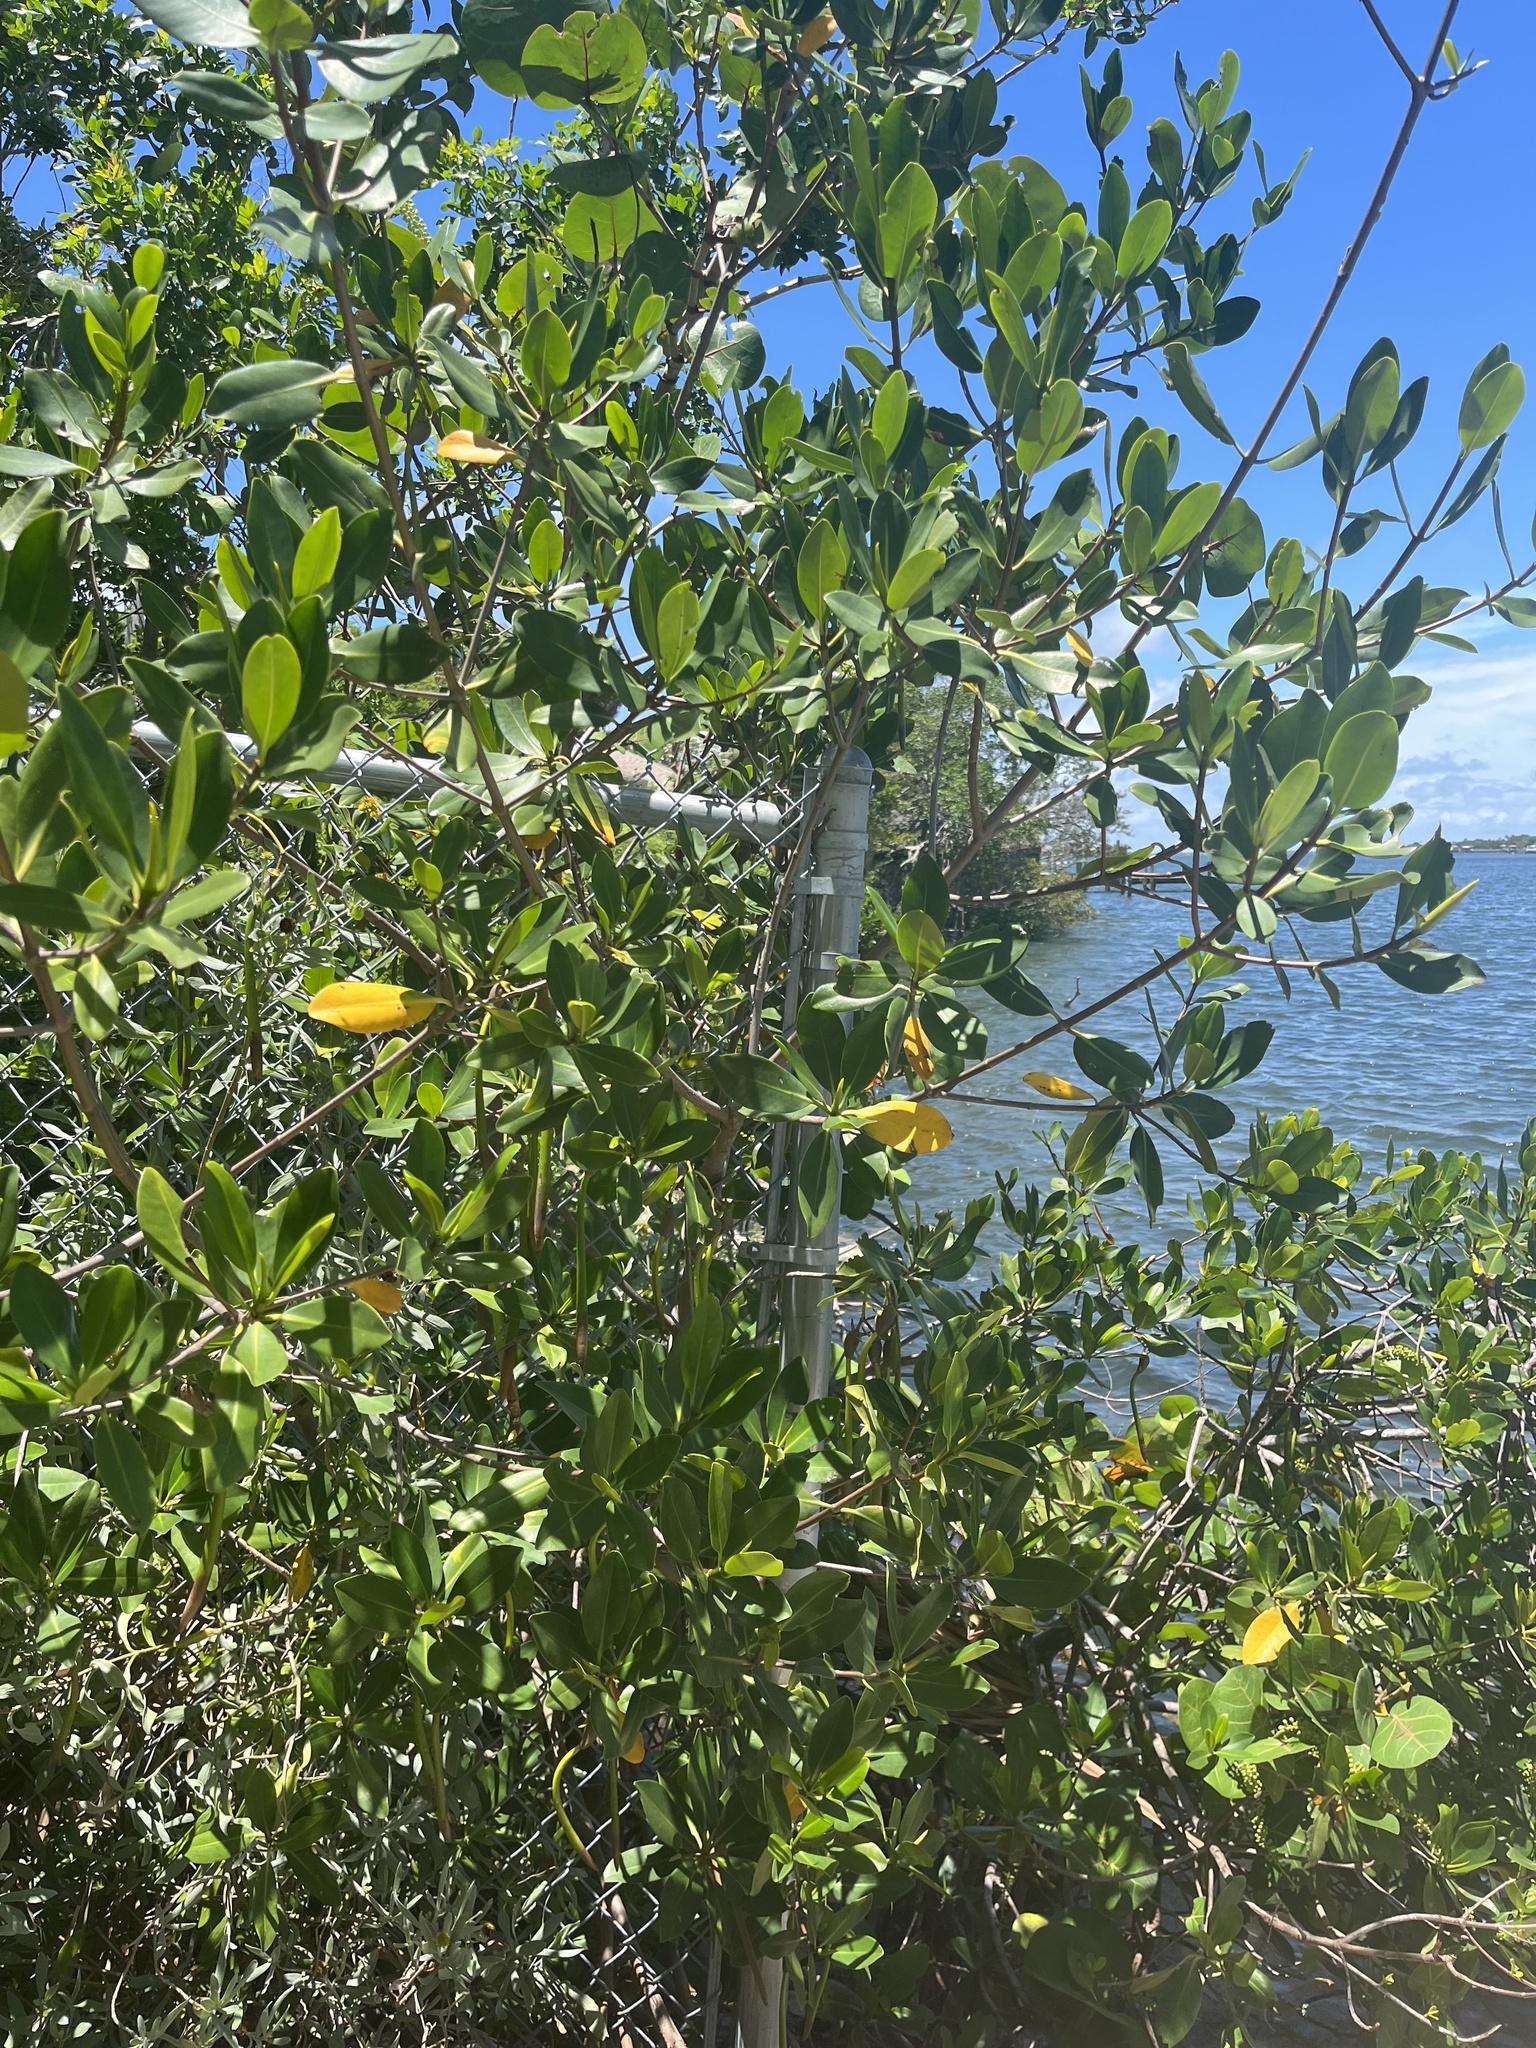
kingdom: Plantae
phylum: Tracheophyta
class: Magnoliopsida
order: Malpighiales
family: Rhizophoraceae
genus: Rhizophora
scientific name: Rhizophora mangle
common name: Red mangrove
